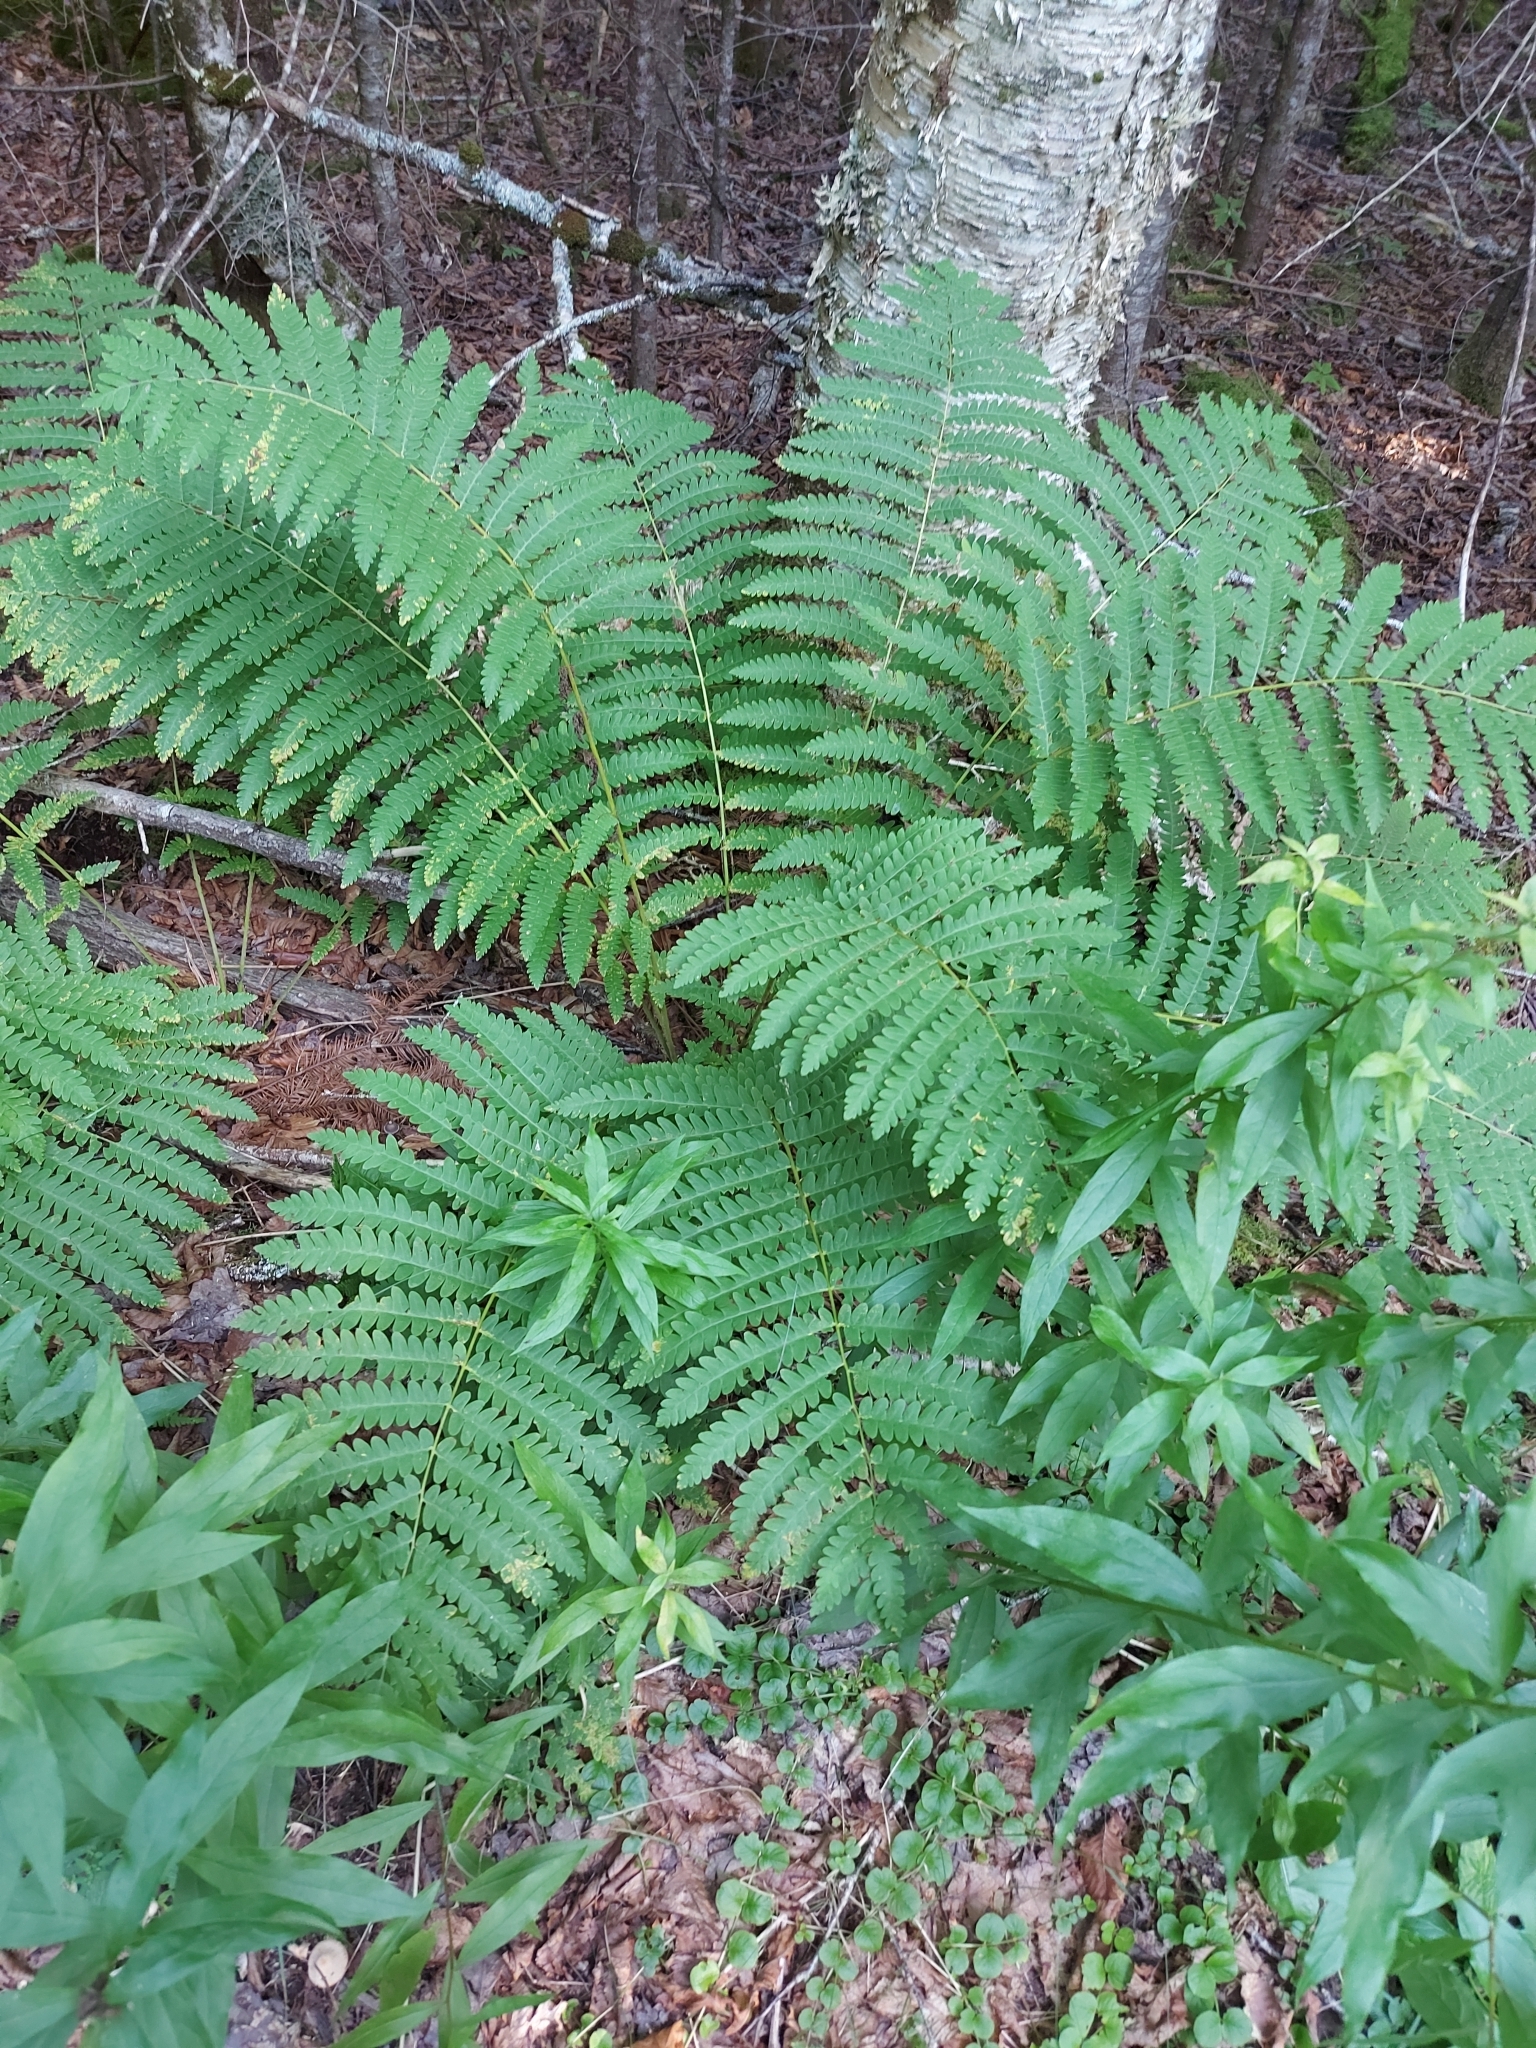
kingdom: Plantae
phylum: Tracheophyta
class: Polypodiopsida
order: Osmundales
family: Osmundaceae
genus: Claytosmunda
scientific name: Claytosmunda claytoniana
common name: Clayton's fern
